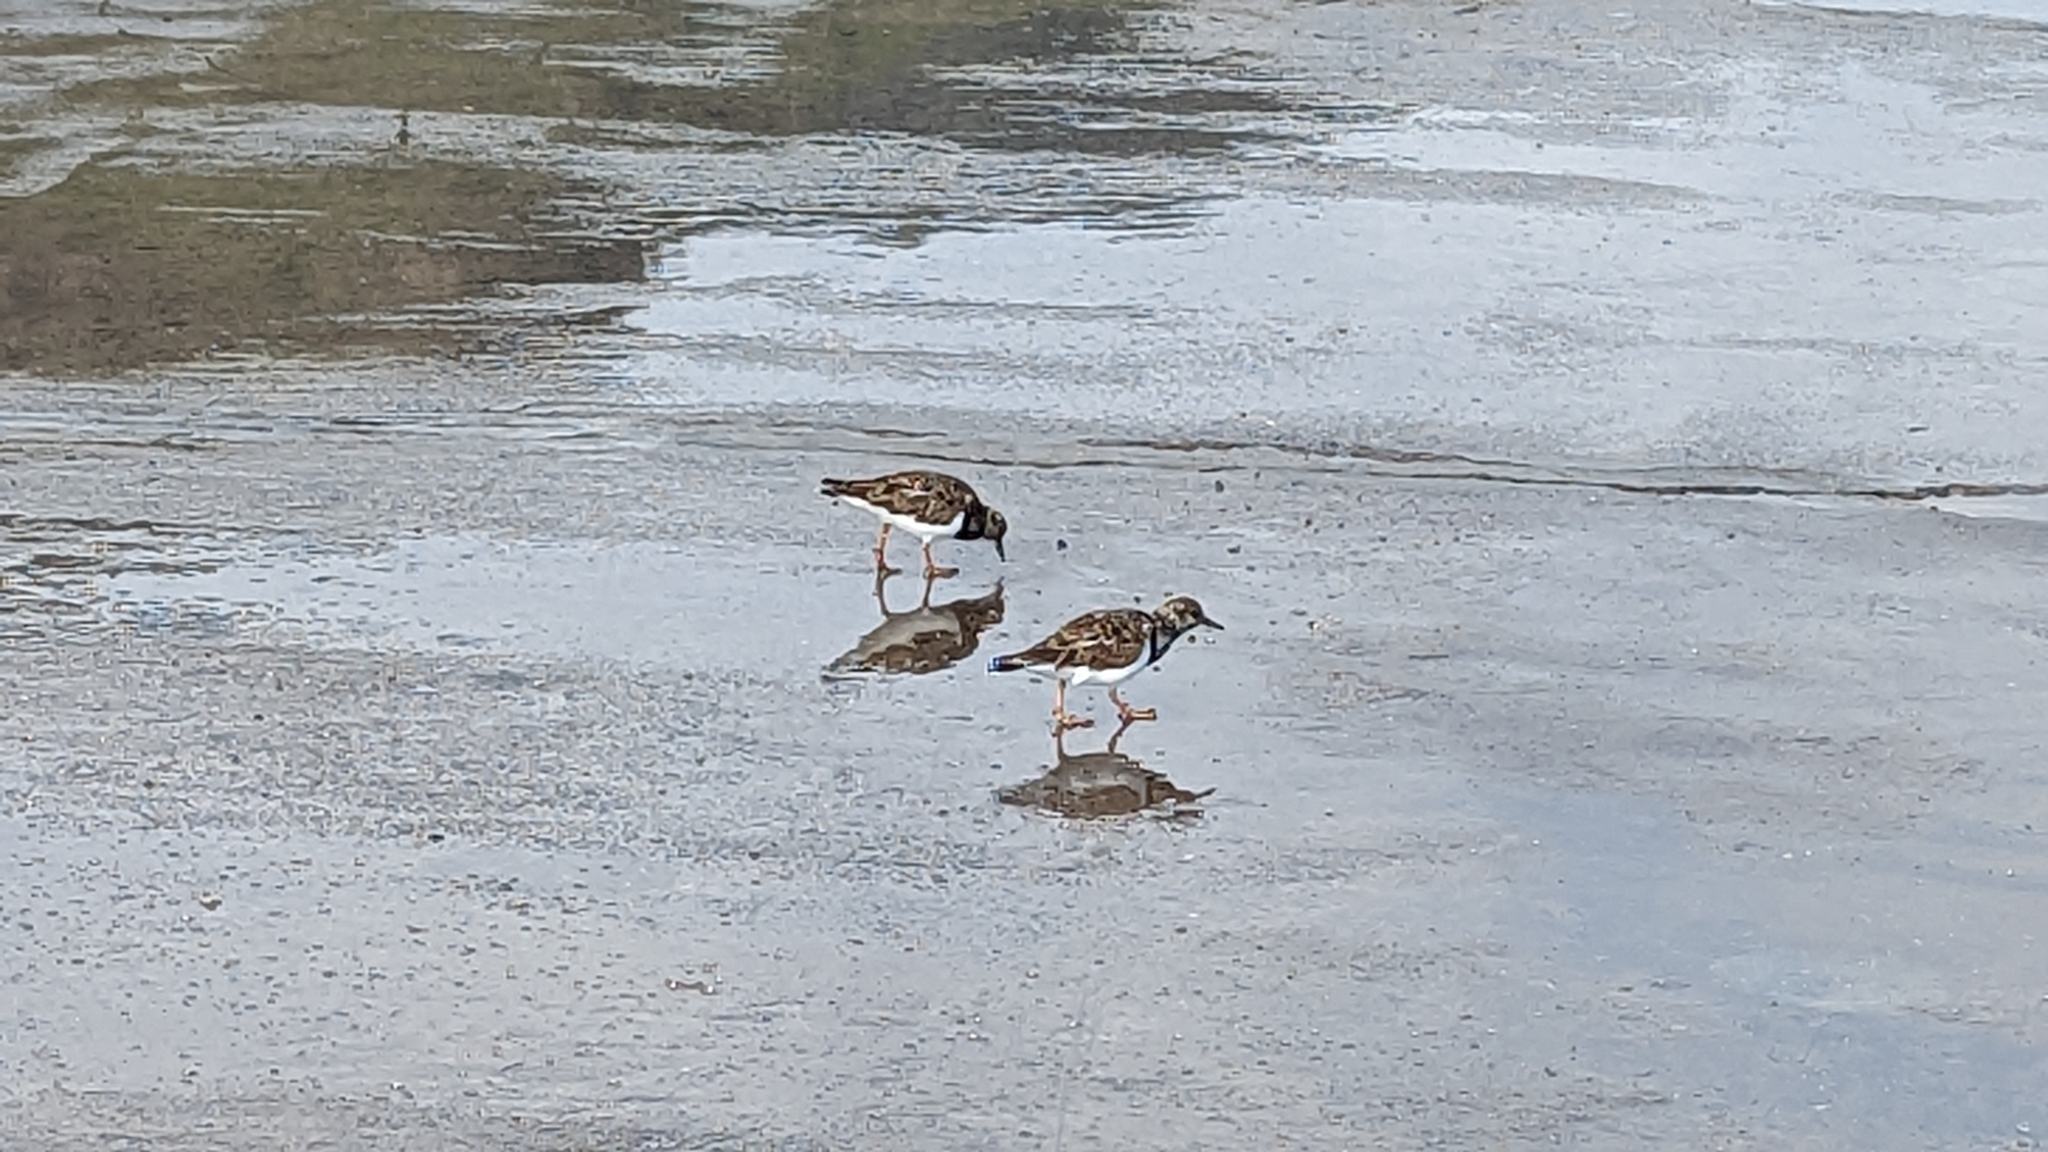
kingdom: Animalia
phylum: Chordata
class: Aves
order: Charadriiformes
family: Scolopacidae
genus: Arenaria
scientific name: Arenaria interpres
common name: Ruddy turnstone
